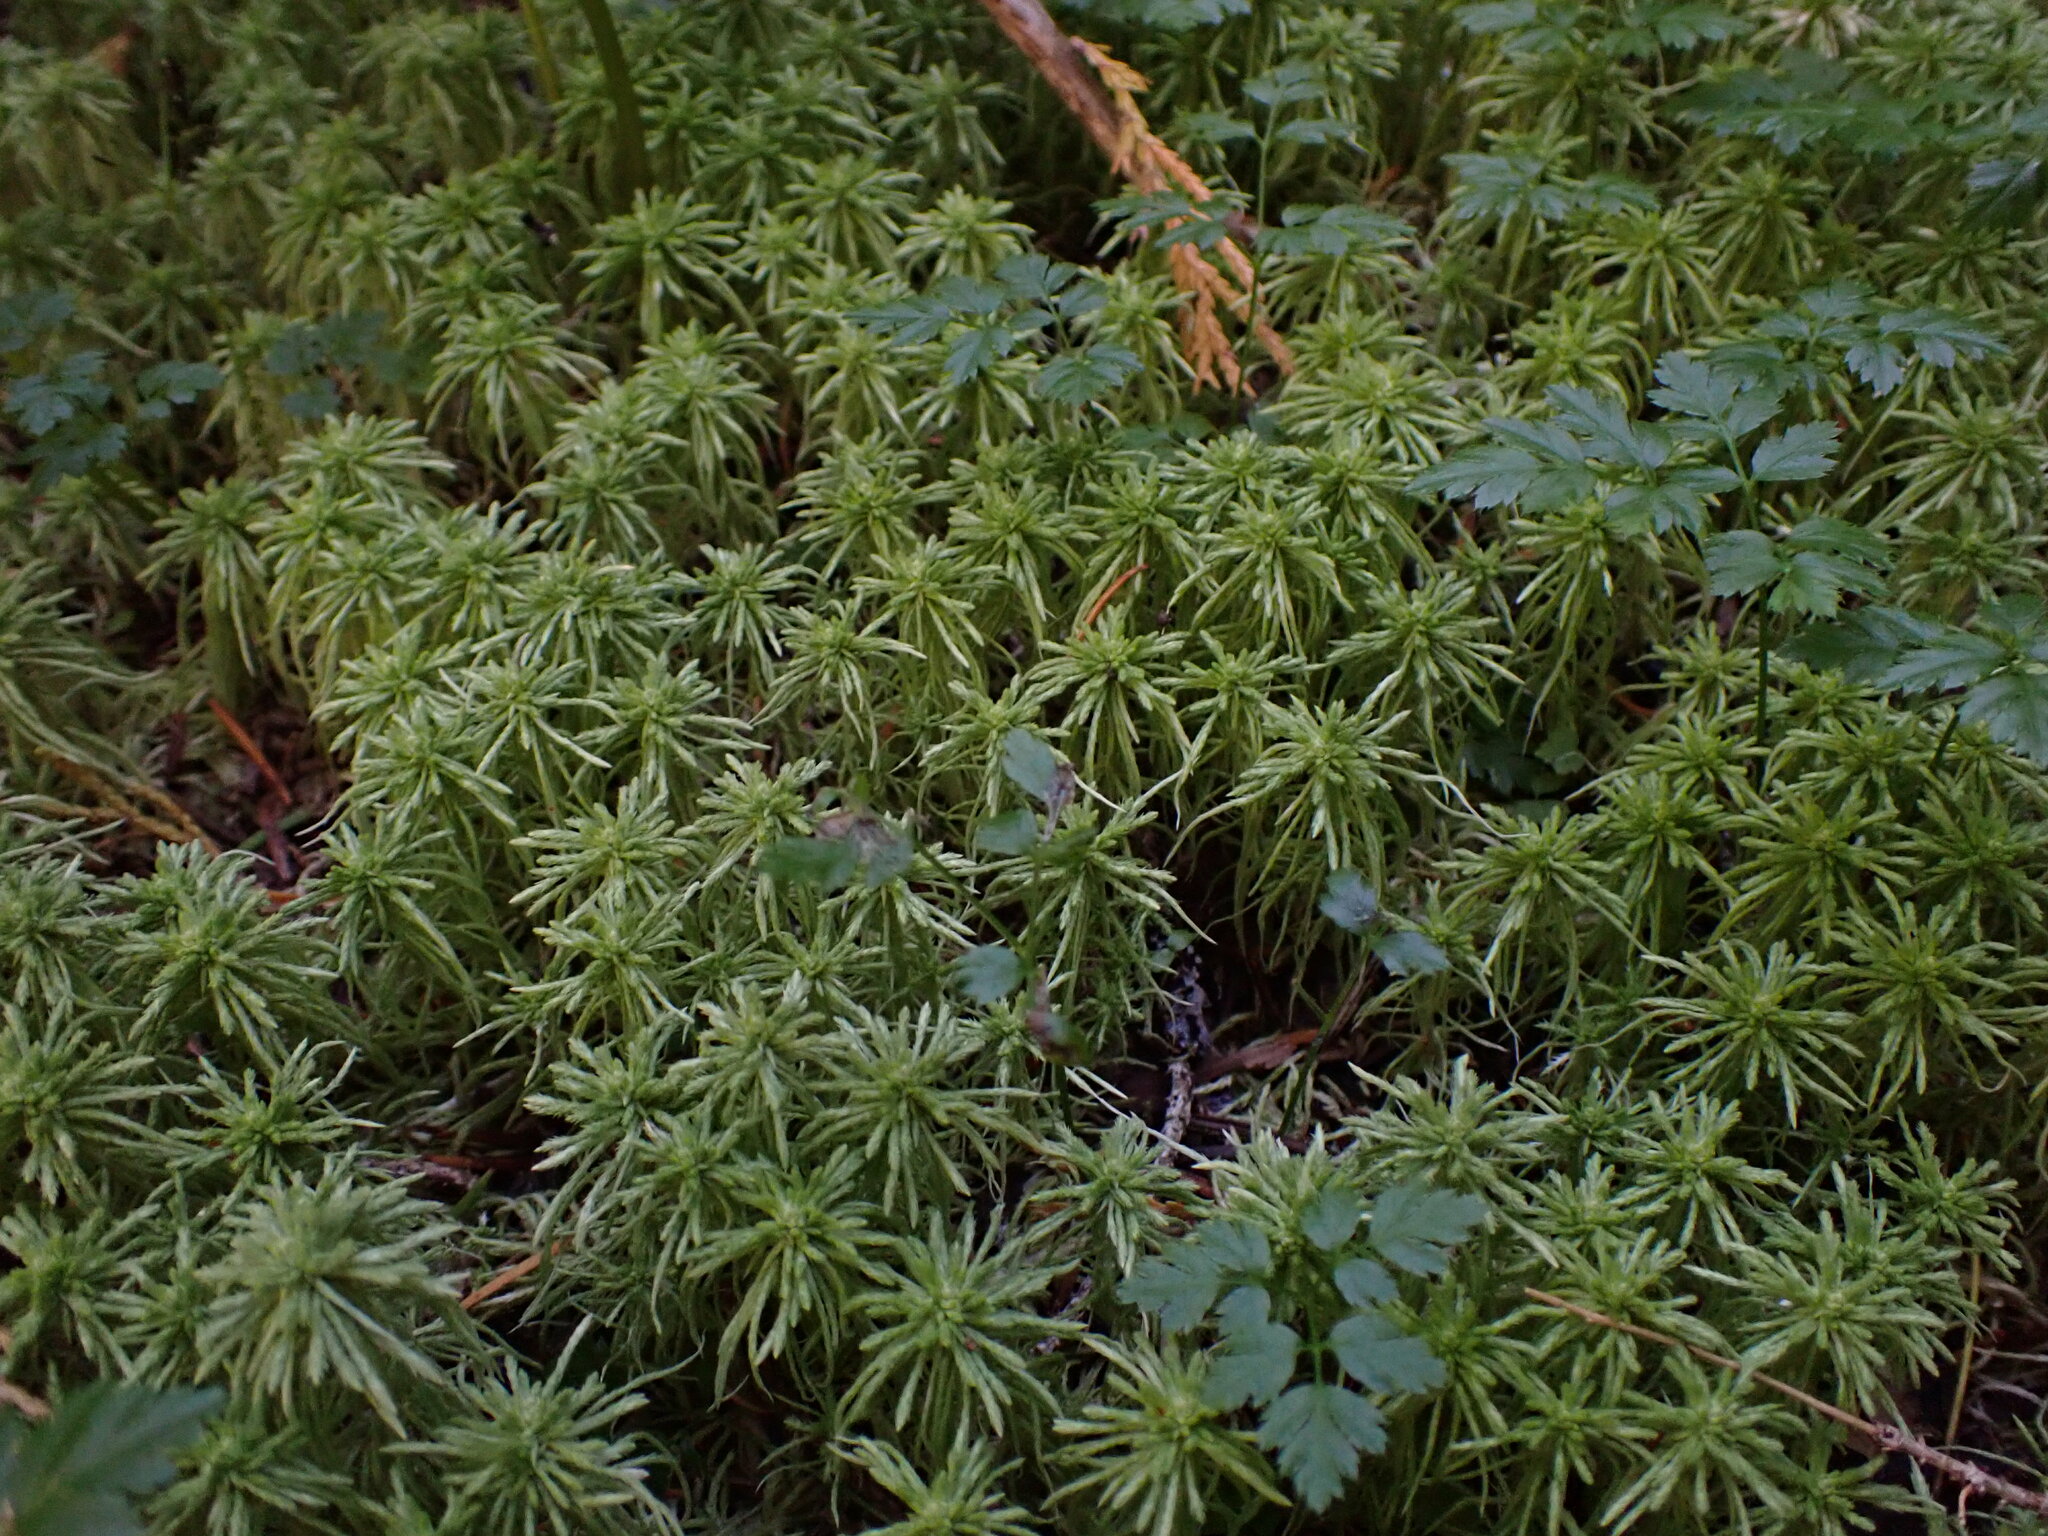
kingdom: Plantae
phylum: Bryophyta
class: Sphagnopsida
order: Sphagnales
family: Sphagnaceae
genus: Sphagnum
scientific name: Sphagnum rubiginosum
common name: Variegated peat moss
